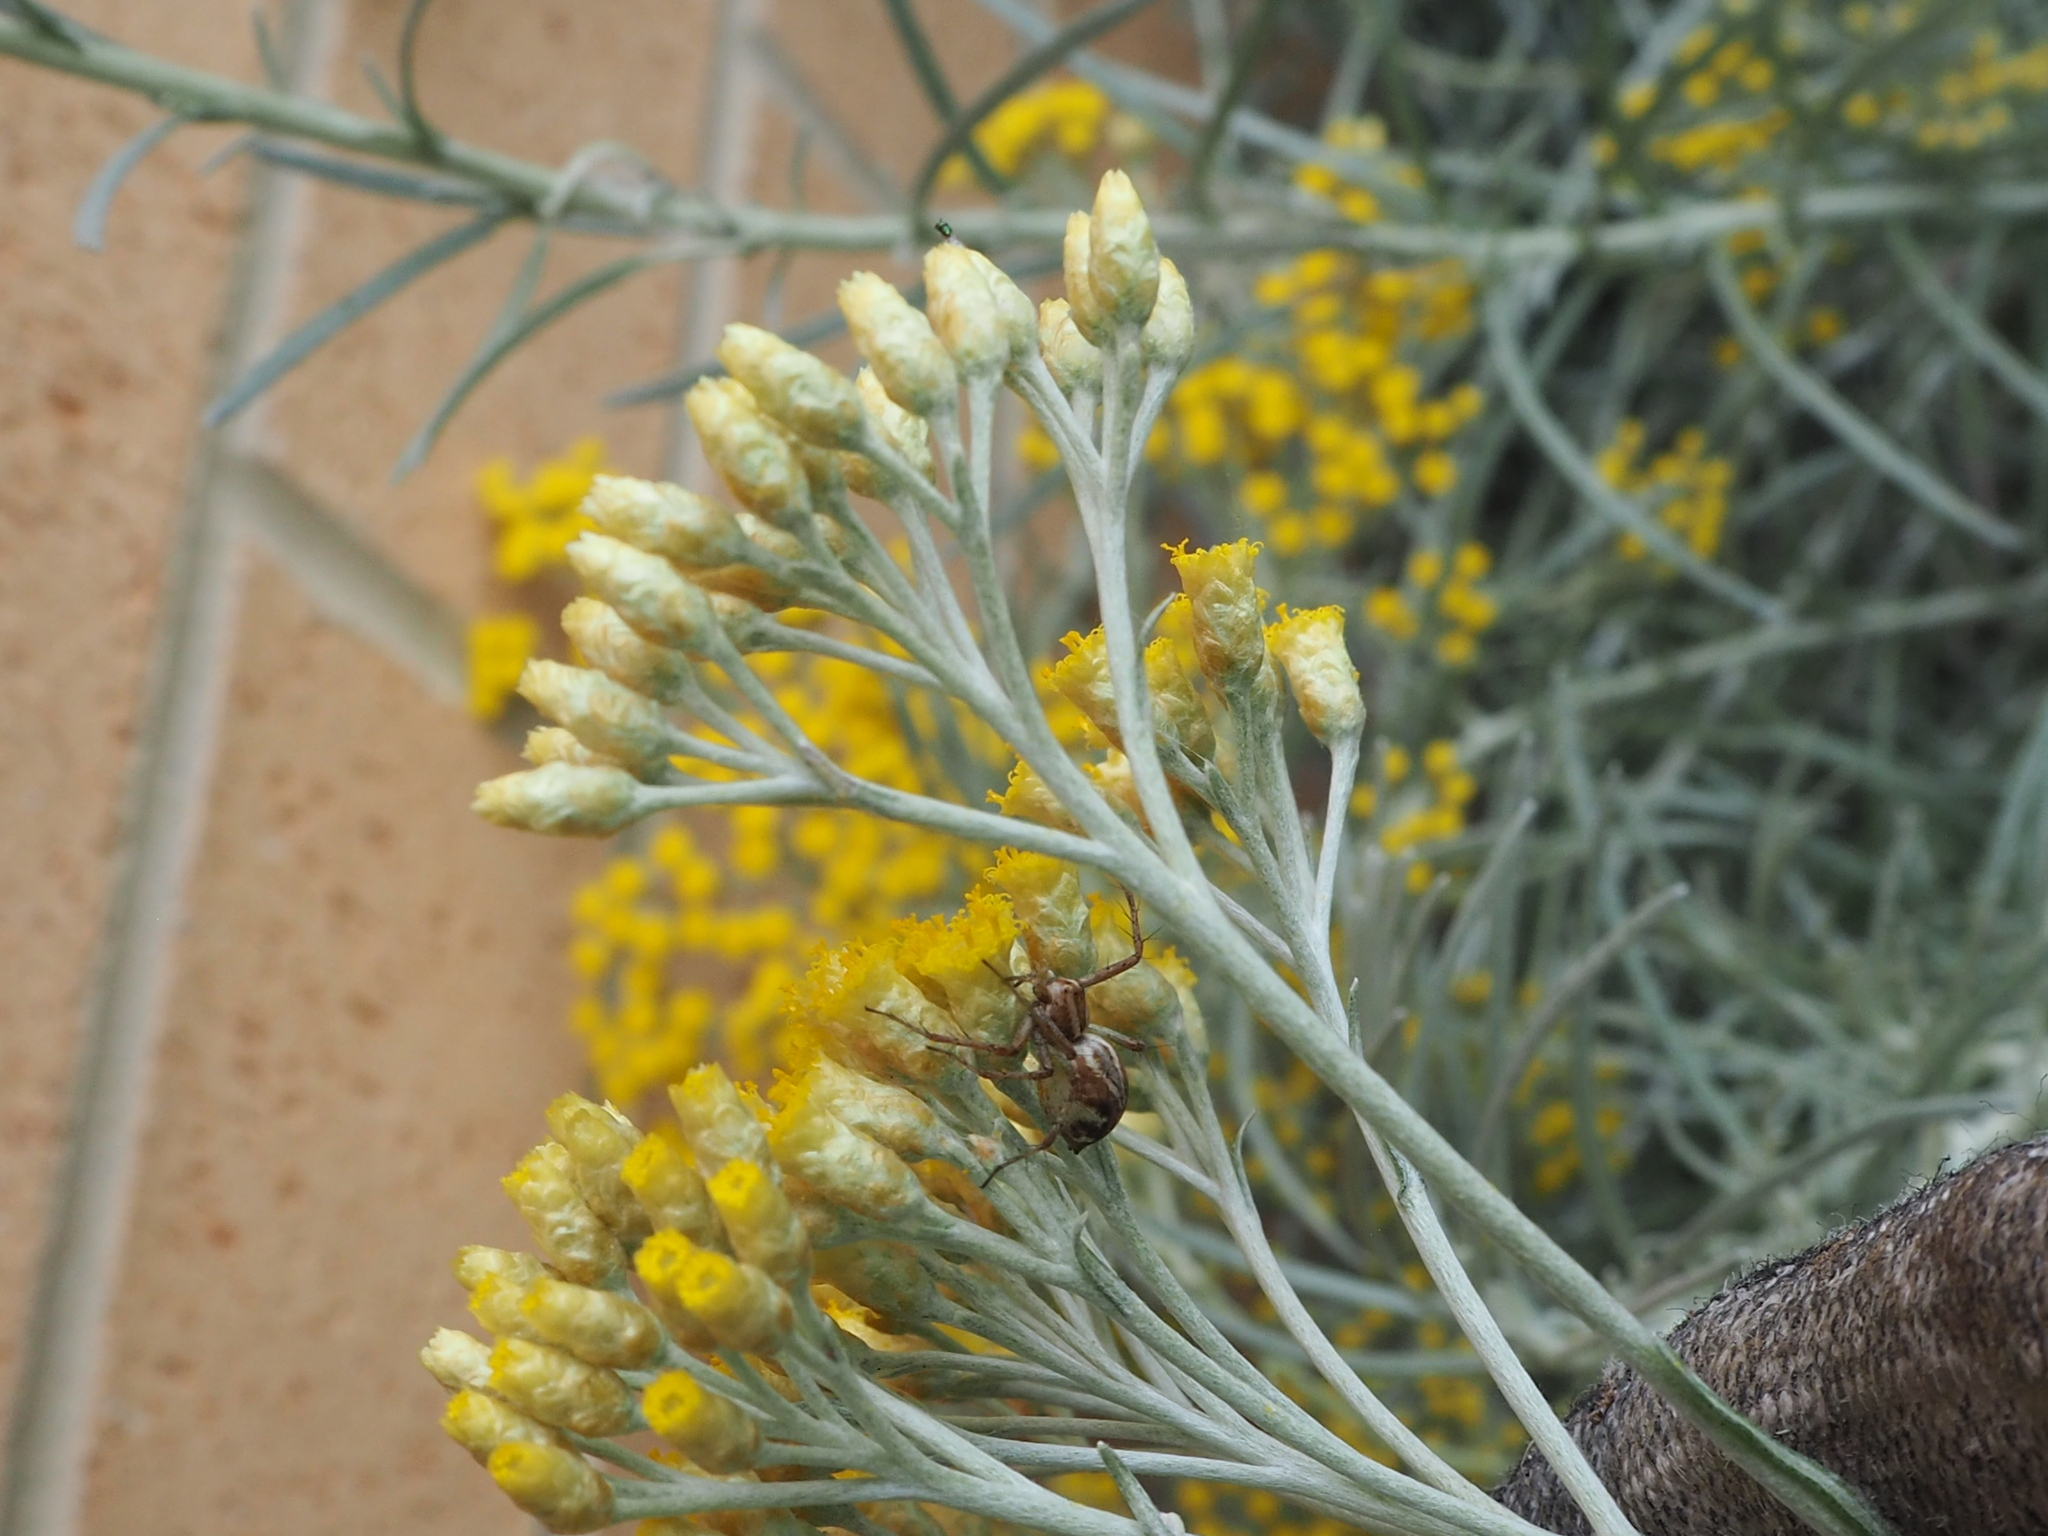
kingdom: Animalia
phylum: Arthropoda
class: Arachnida
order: Araneae
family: Oxyopidae
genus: Oxyopes
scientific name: Oxyopes
